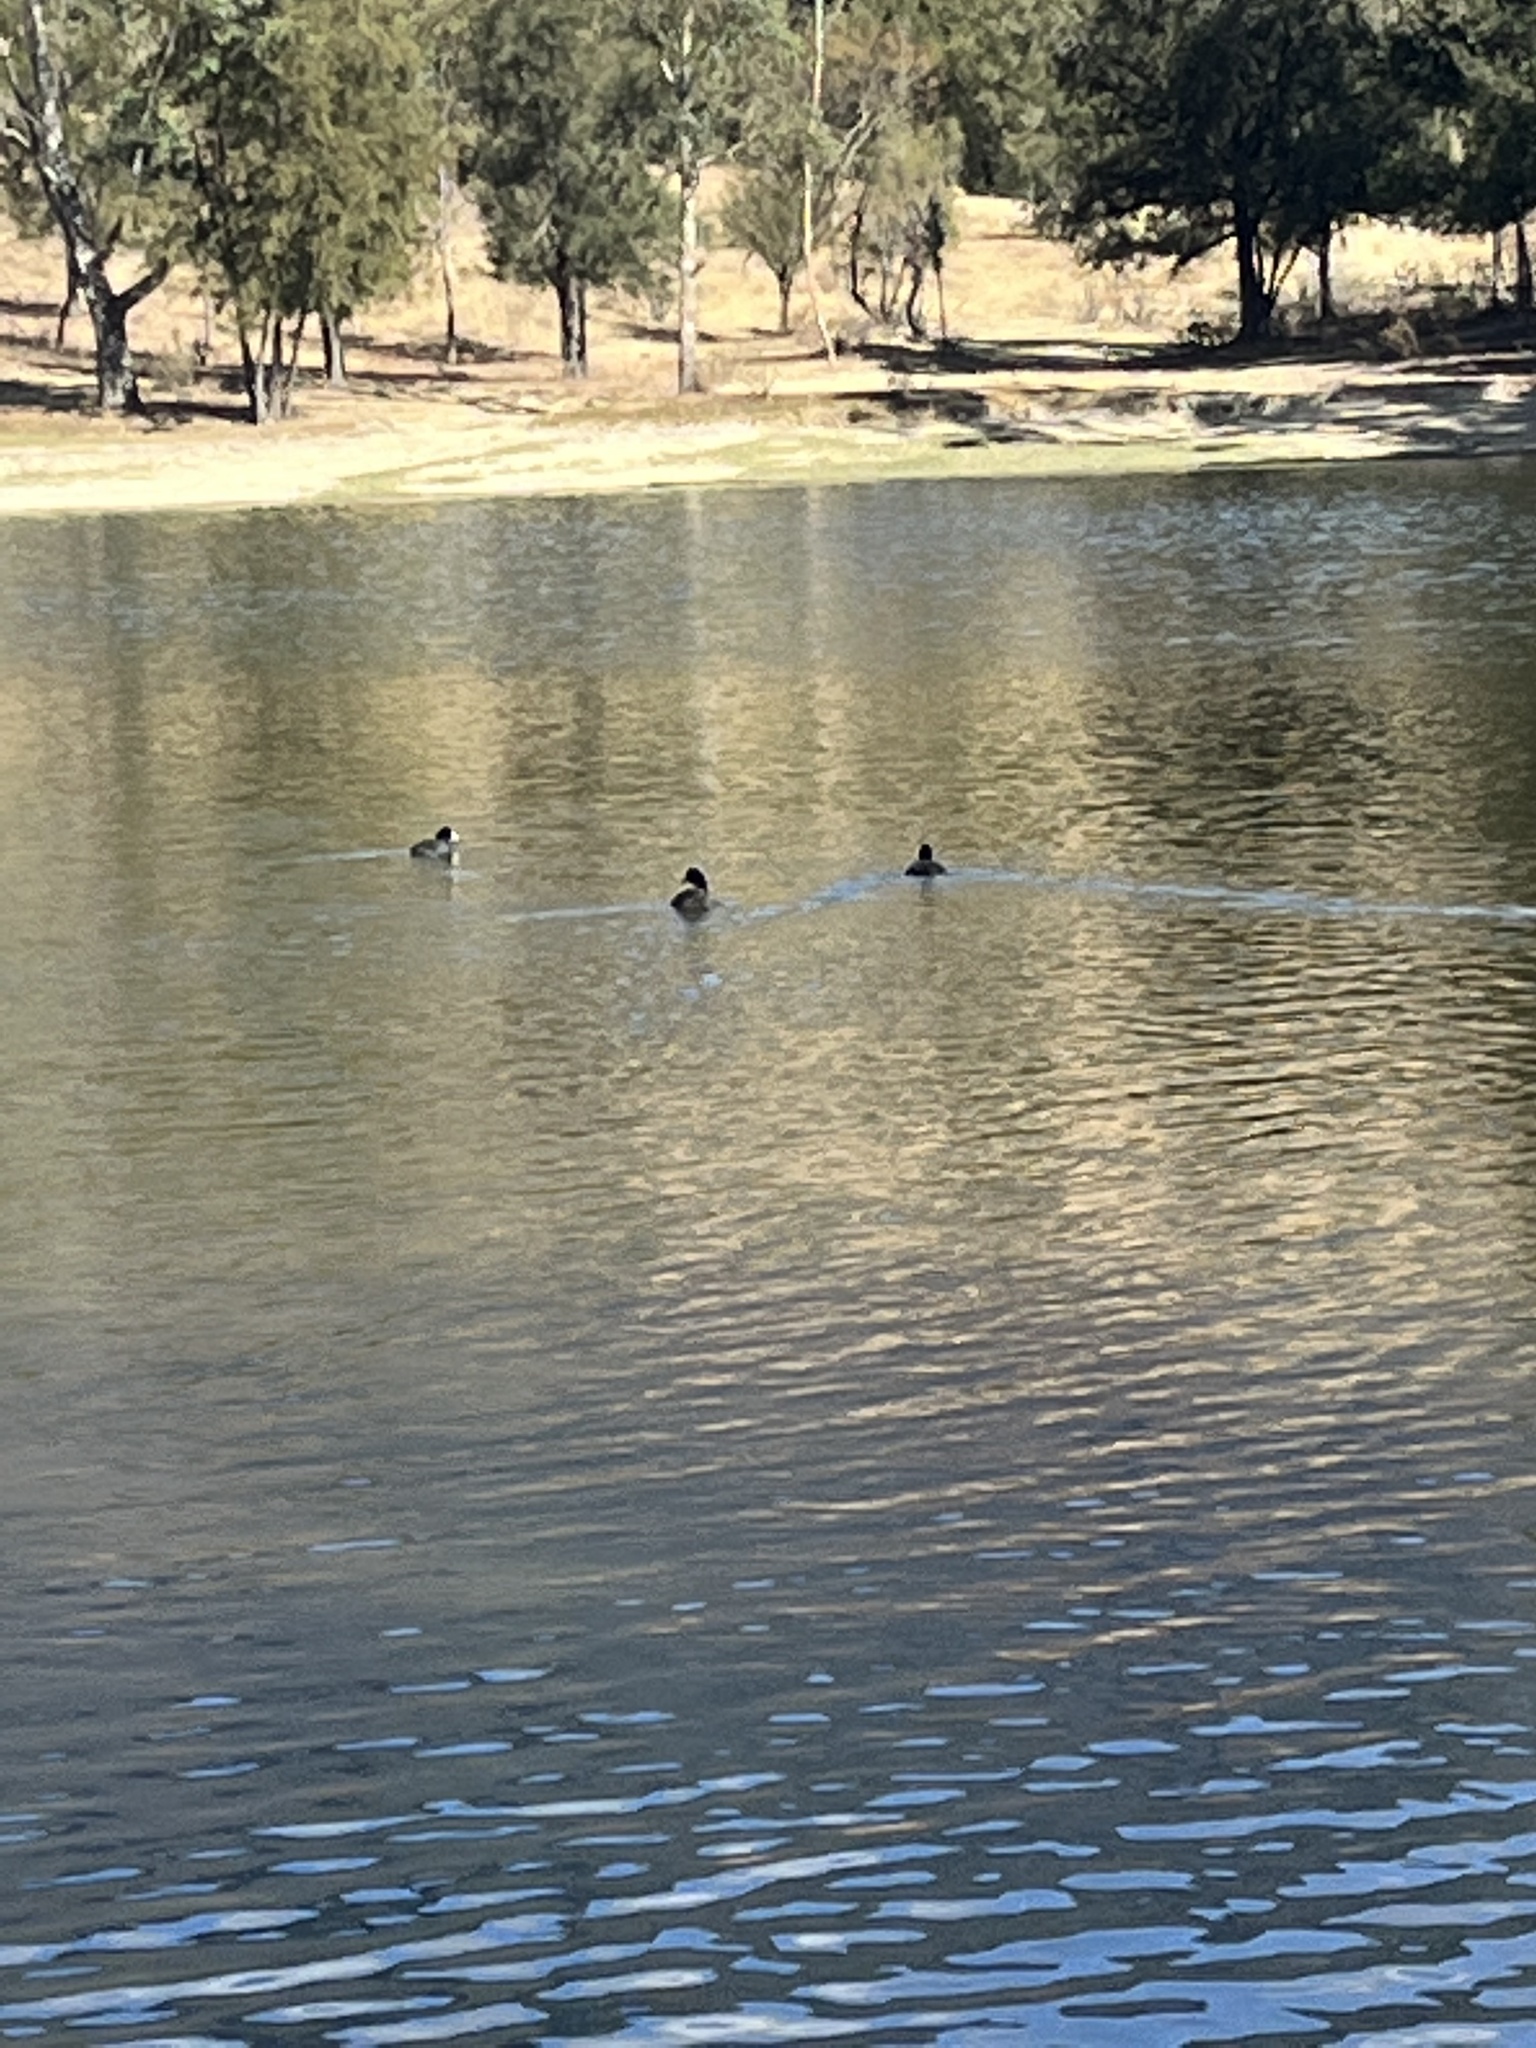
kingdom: Animalia
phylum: Chordata
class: Aves
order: Gruiformes
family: Rallidae
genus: Fulica
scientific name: Fulica americana
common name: American coot
